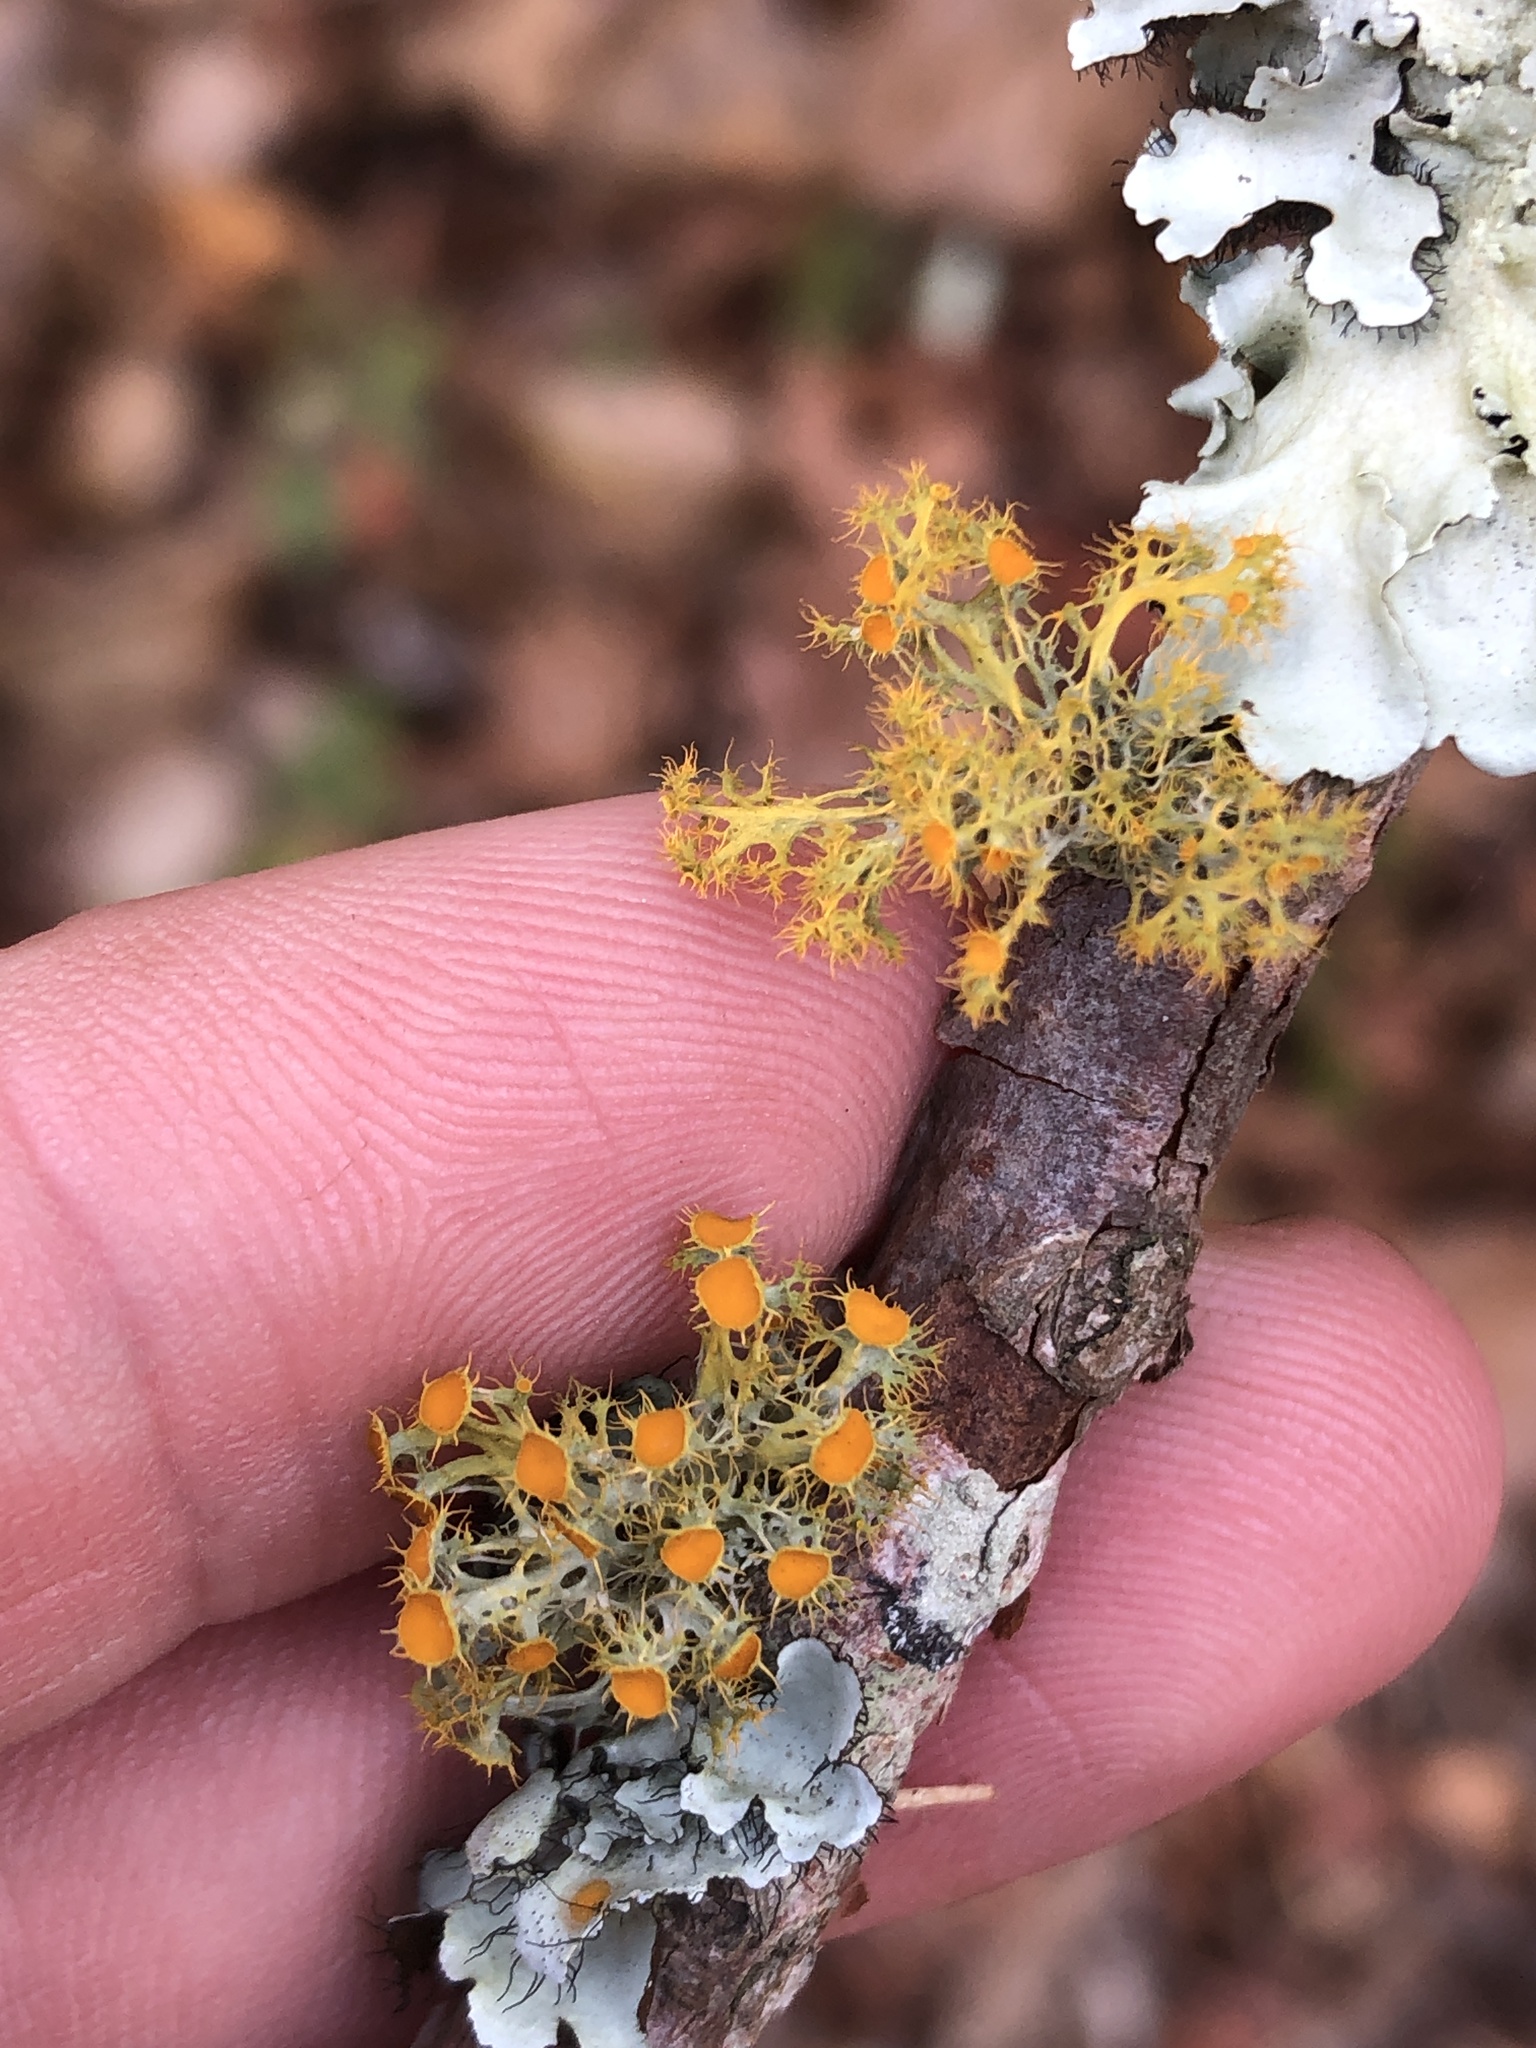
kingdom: Fungi
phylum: Ascomycota
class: Lecanoromycetes
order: Teloschistales
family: Teloschistaceae
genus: Niorma
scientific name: Niorma chrysophthalma
